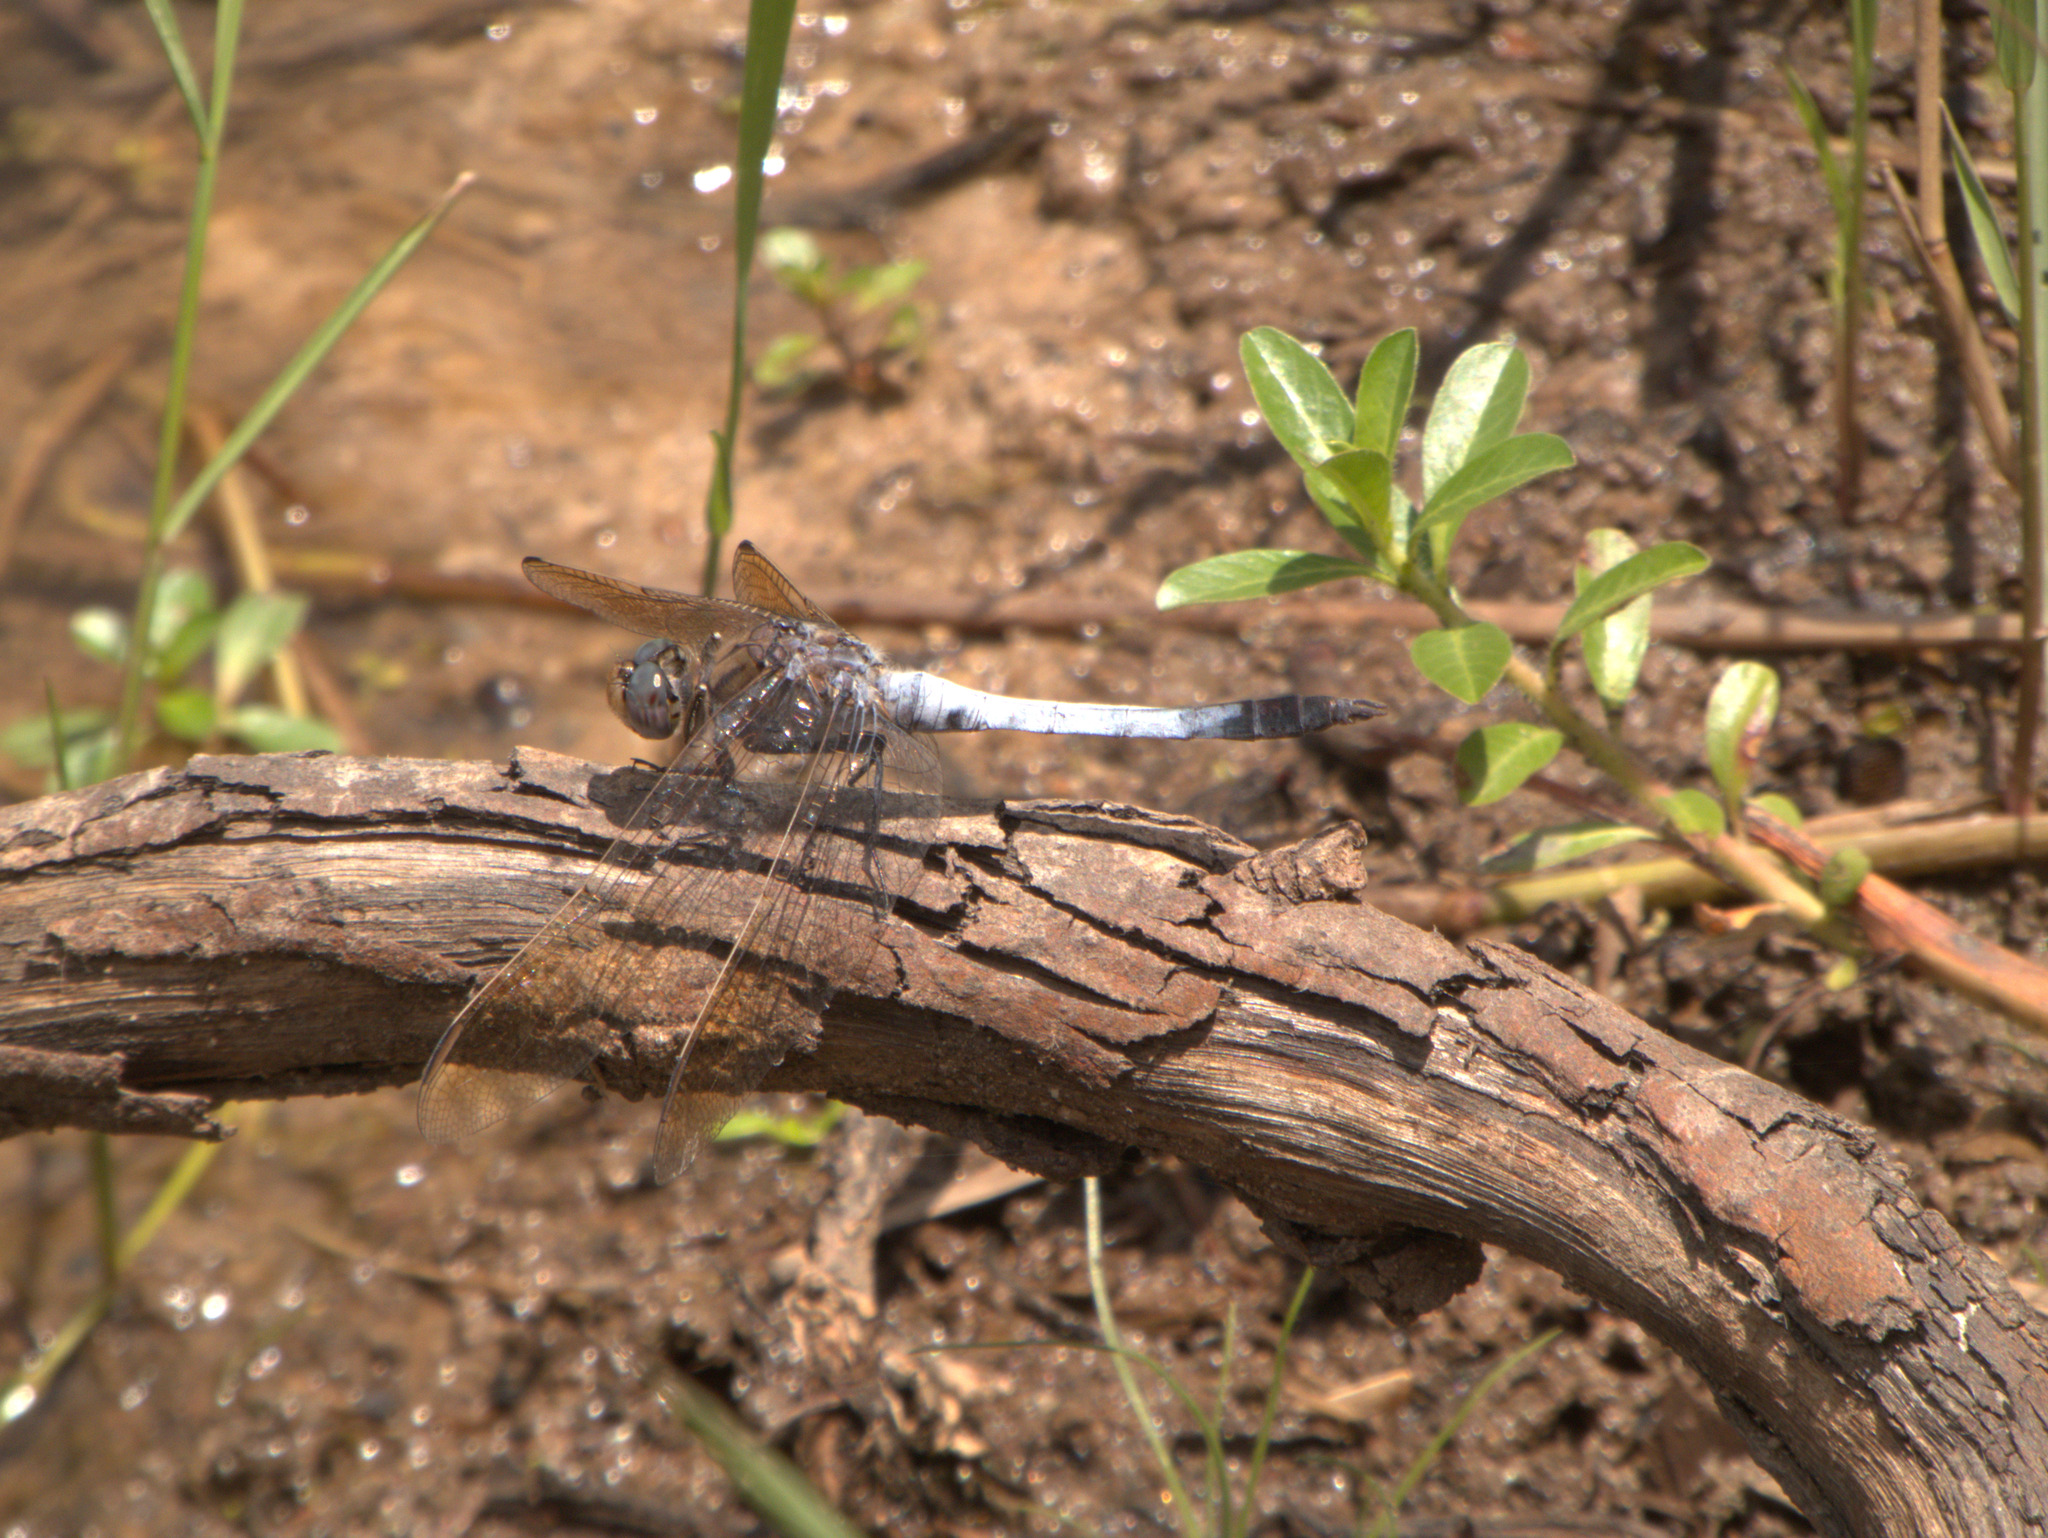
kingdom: Animalia
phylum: Arthropoda
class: Insecta
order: Odonata
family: Libellulidae
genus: Orthetrum
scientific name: Orthetrum caledonicum
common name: Blue skimmer
